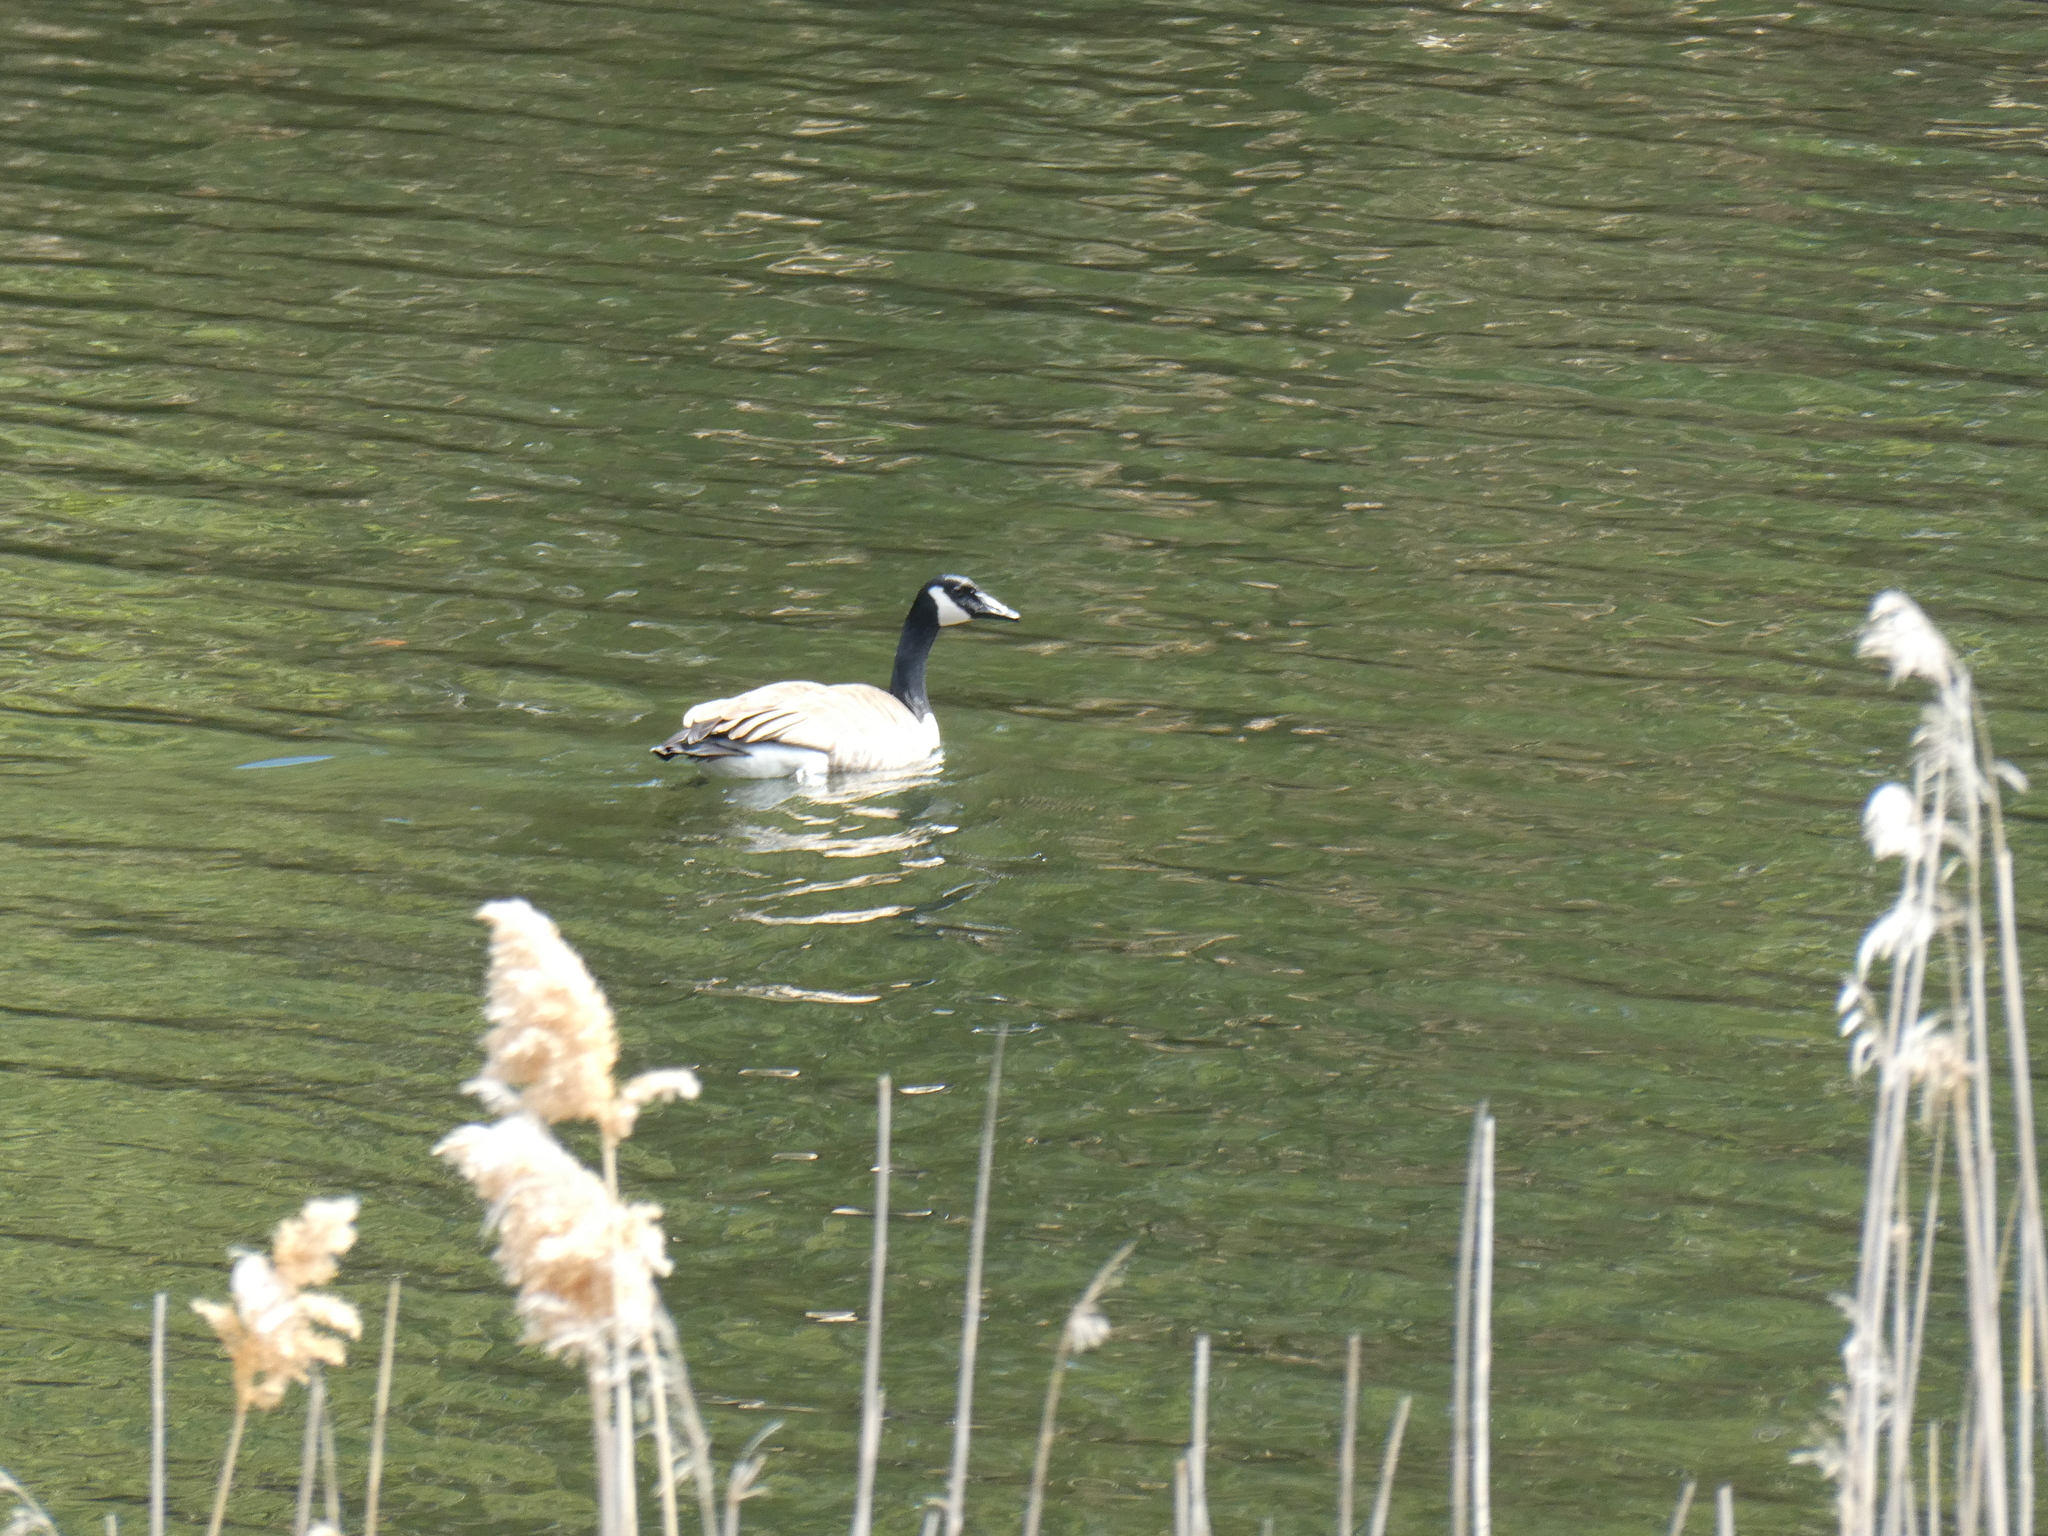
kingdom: Animalia
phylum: Chordata
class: Aves
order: Anseriformes
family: Anatidae
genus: Branta
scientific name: Branta canadensis
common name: Canada goose
